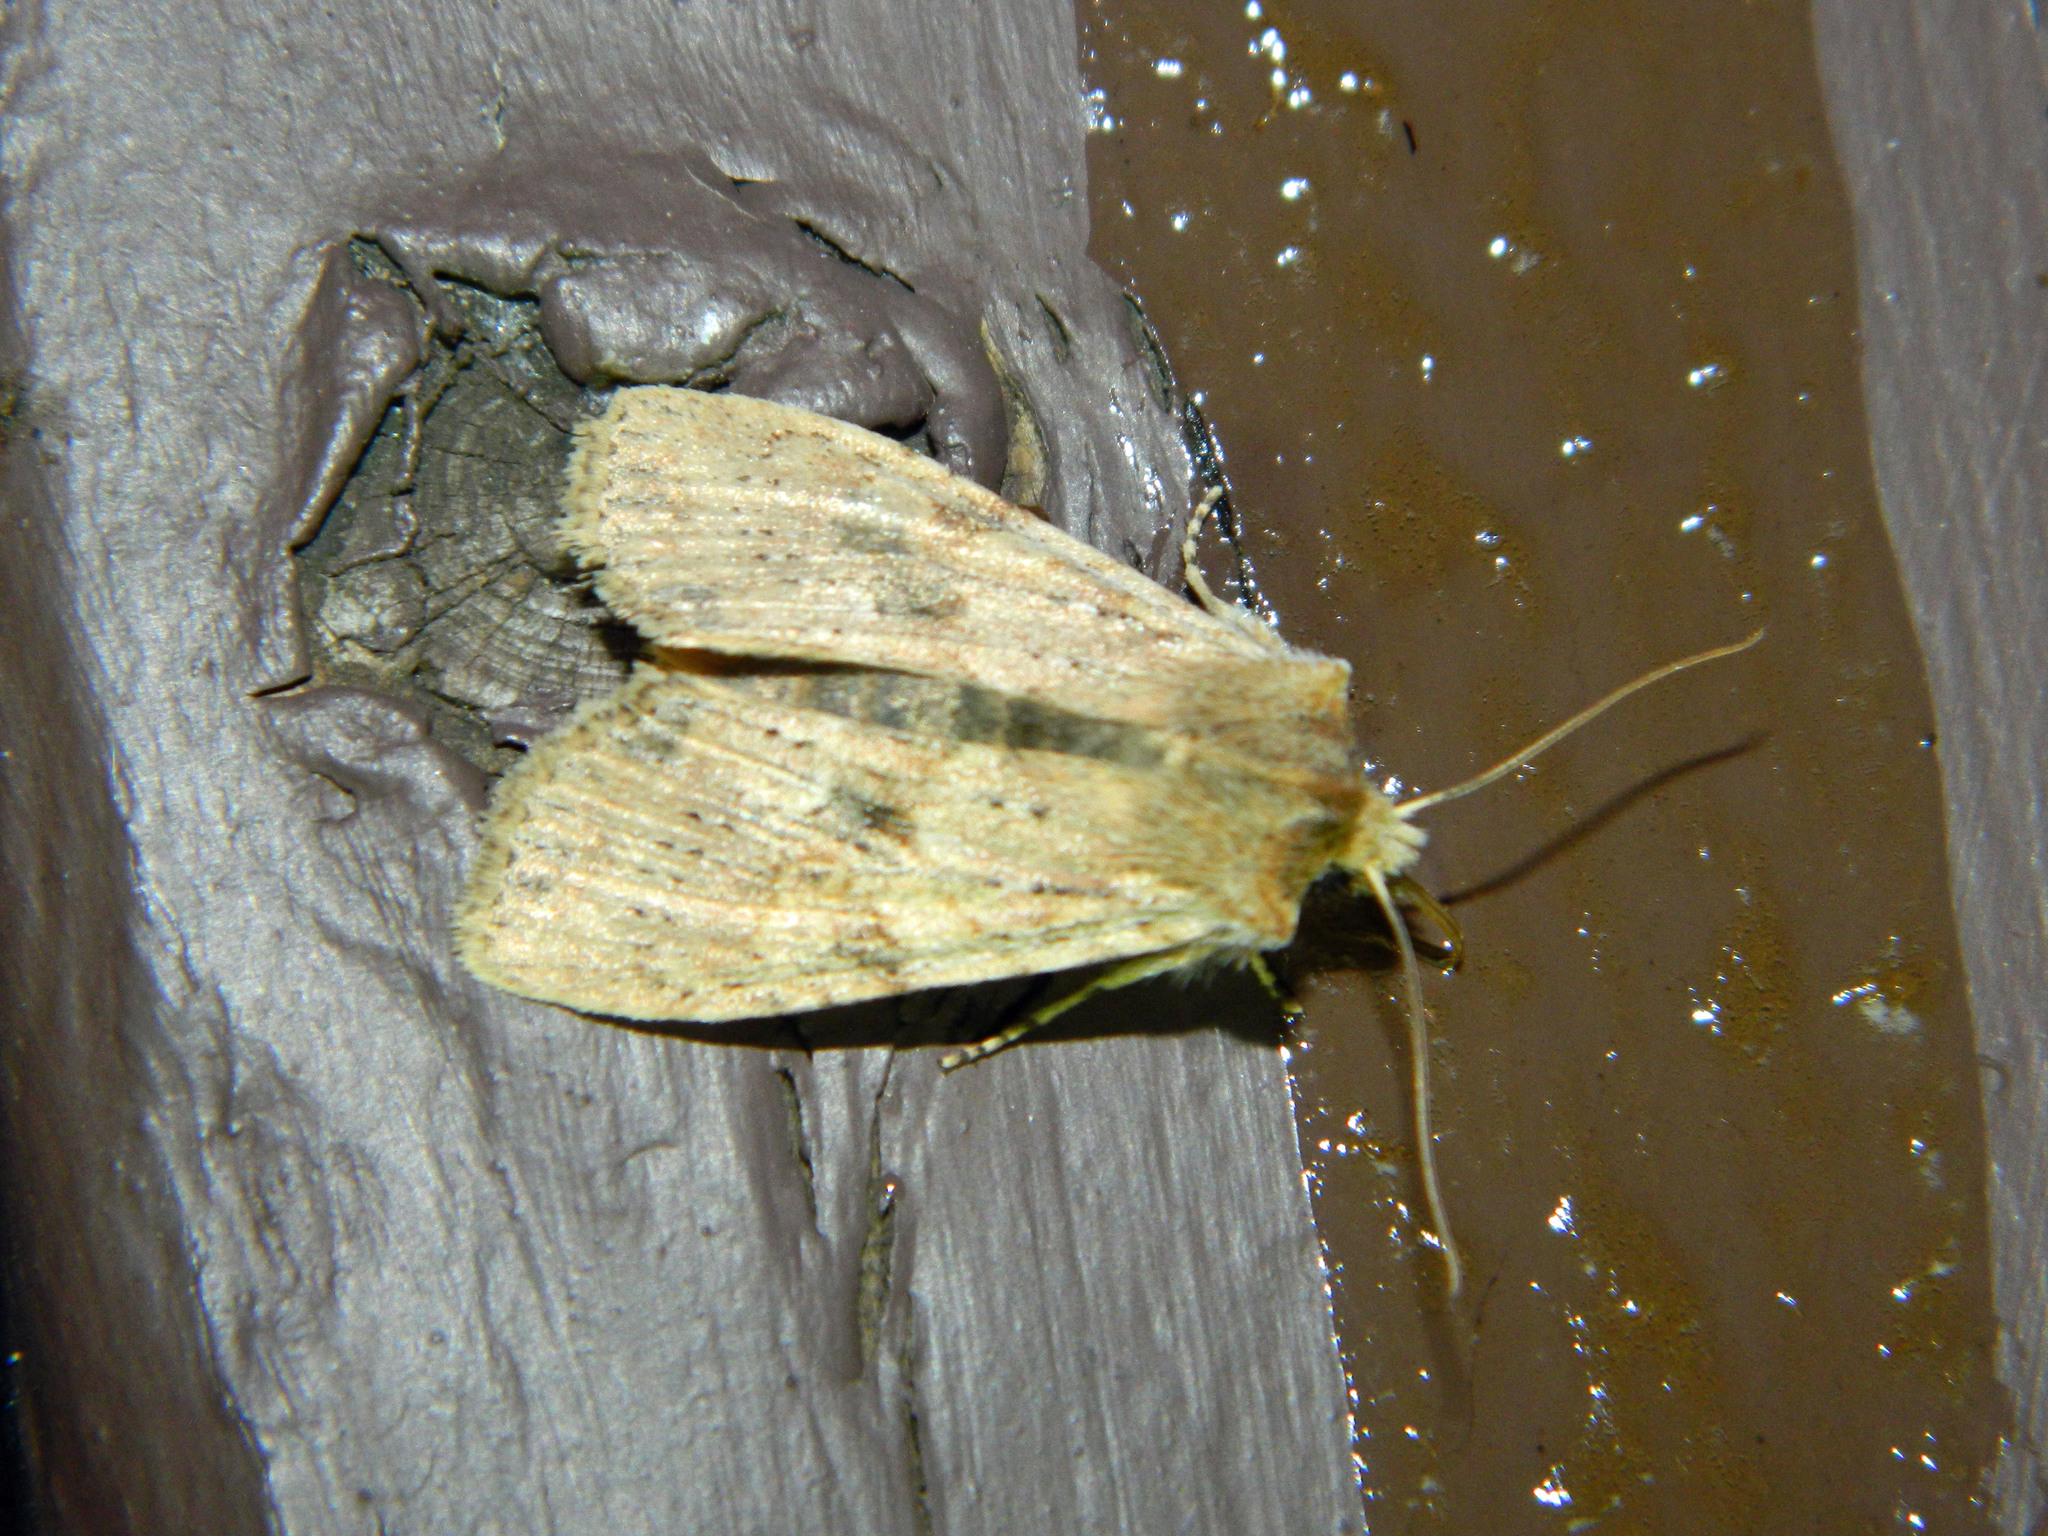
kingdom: Animalia
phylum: Arthropoda
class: Insecta
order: Lepidoptera
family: Noctuidae
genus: Lithophane
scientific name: Lithophane innominata
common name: Nameless pinion moth
